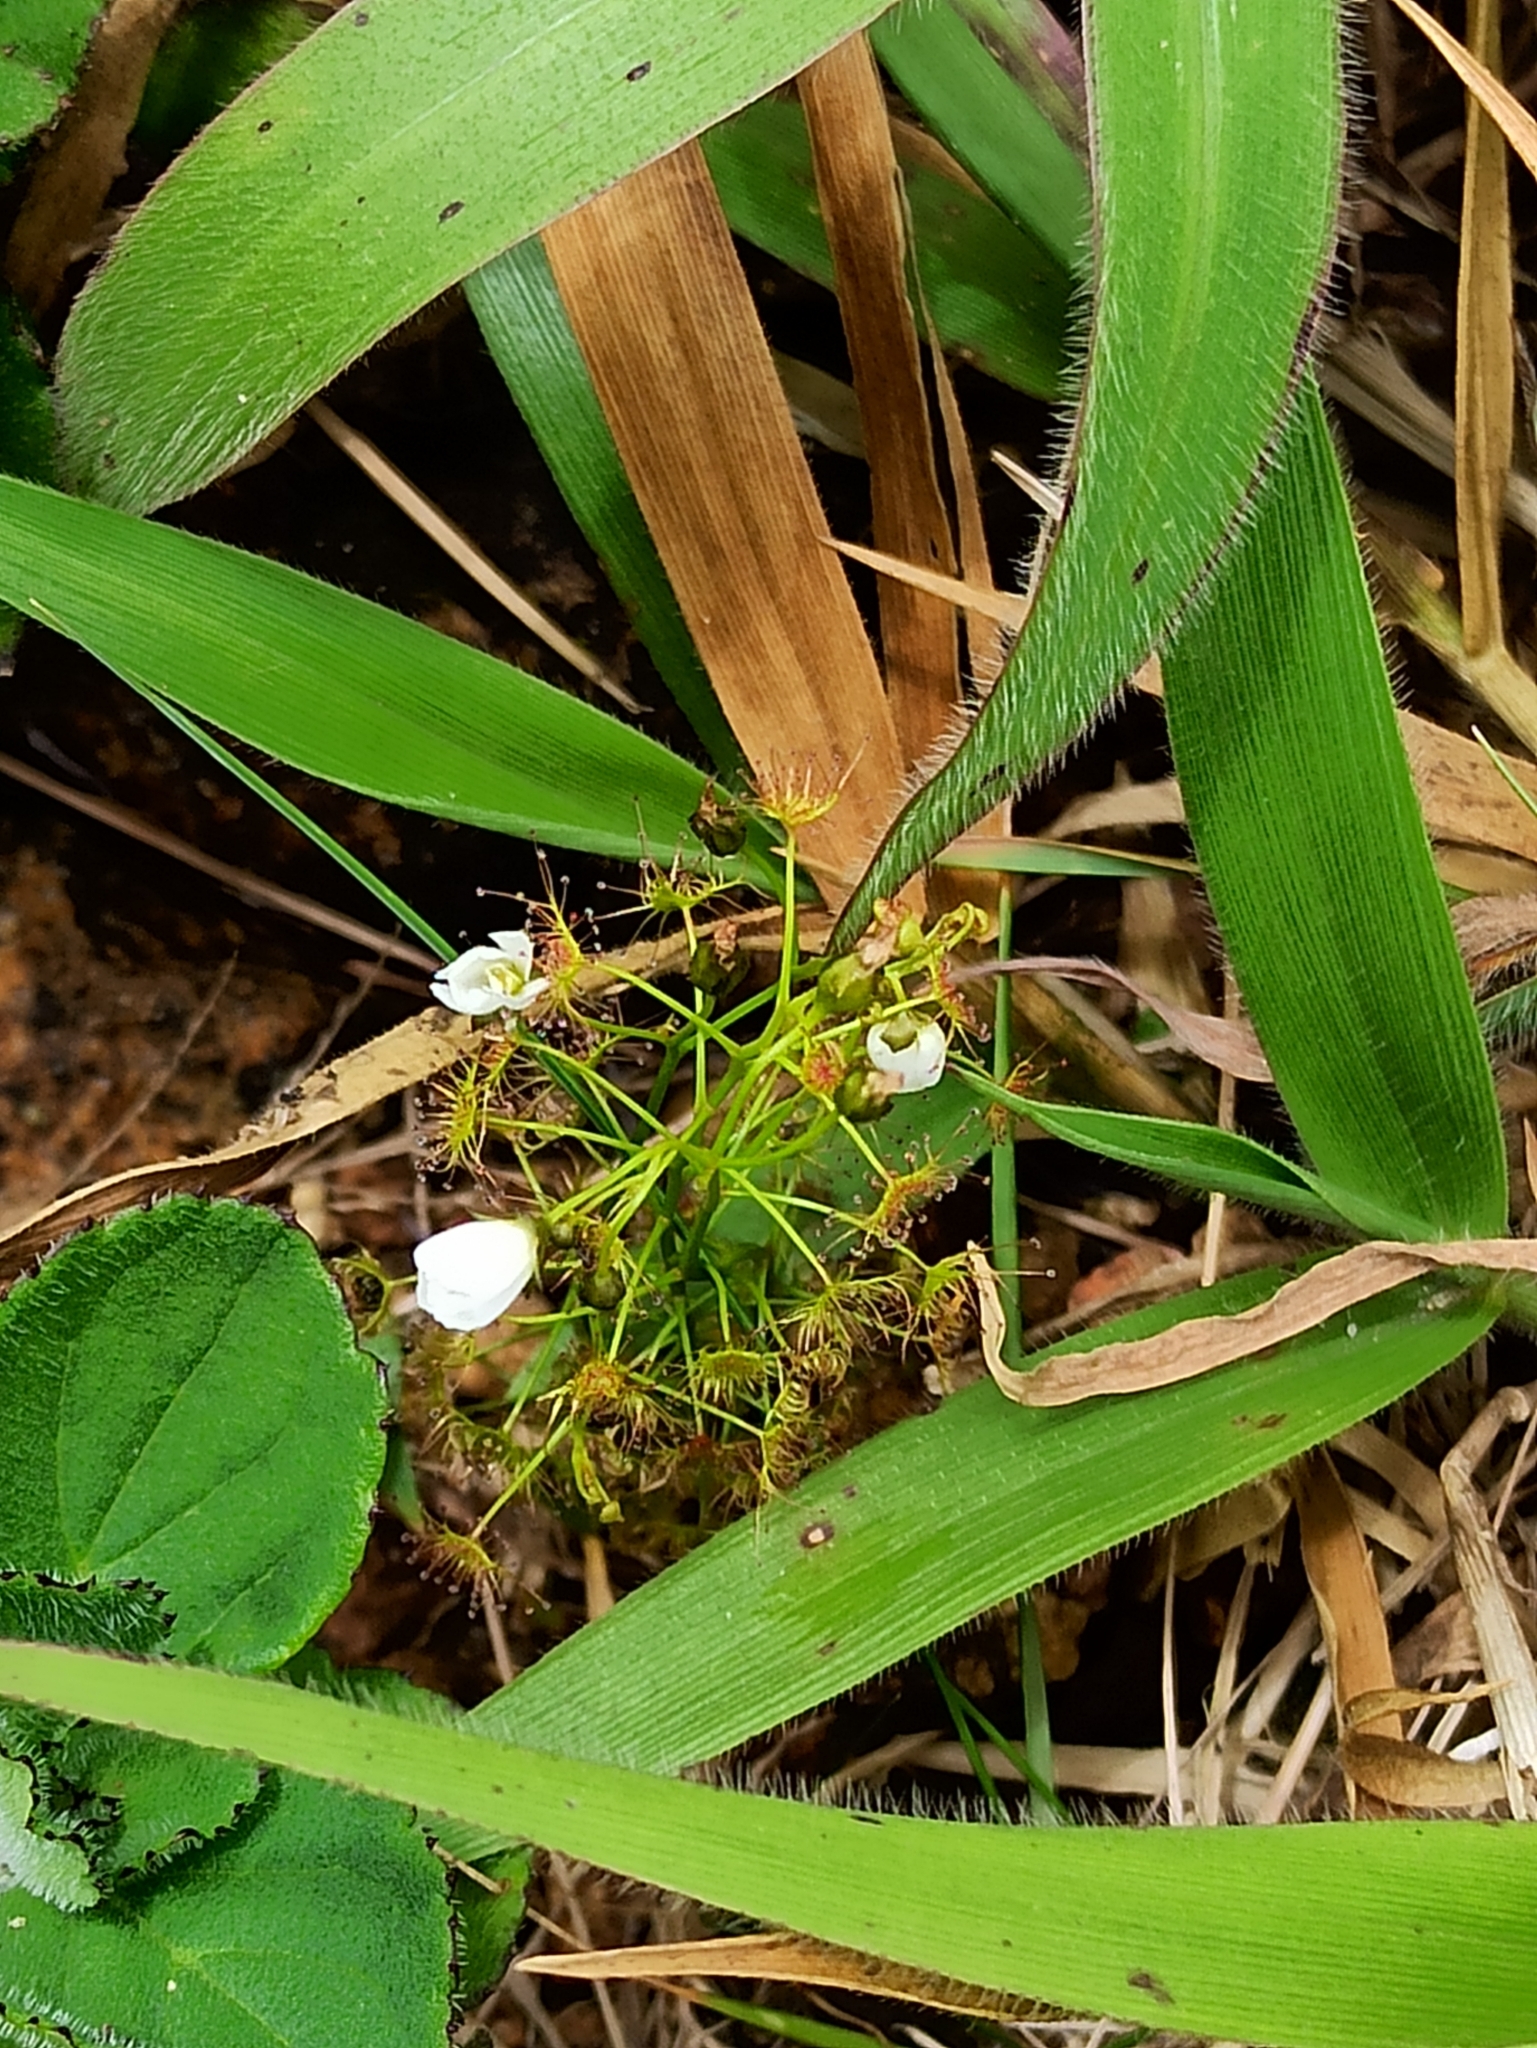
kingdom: Plantae
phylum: Tracheophyta
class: Magnoliopsida
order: Caryophyllales
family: Droseraceae
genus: Drosera
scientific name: Drosera peltata
